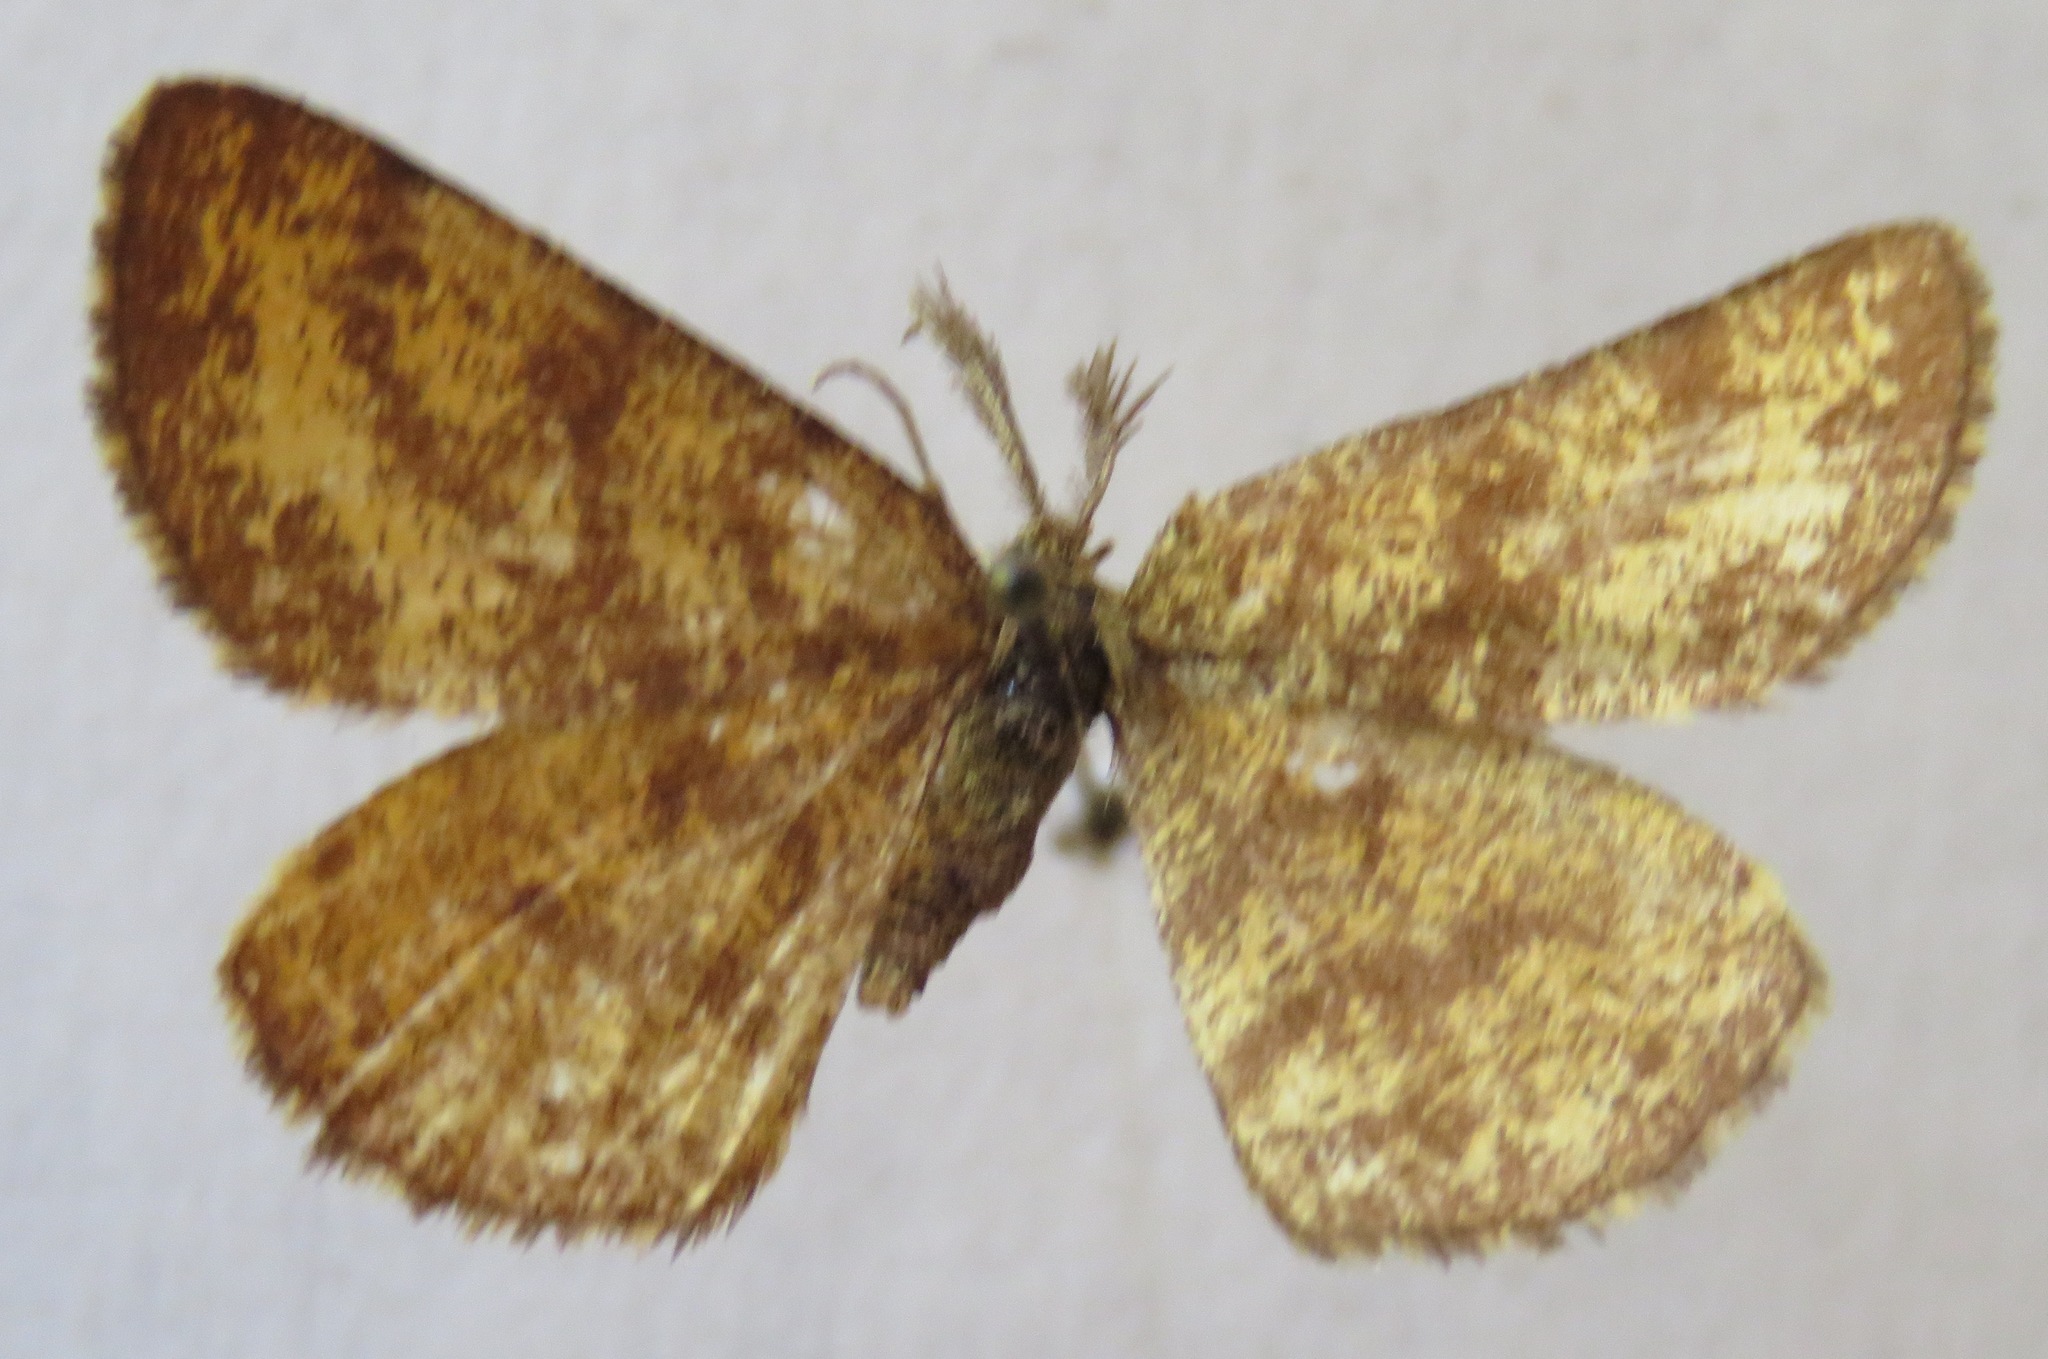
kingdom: Animalia
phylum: Arthropoda
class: Insecta
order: Lepidoptera
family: Geometridae
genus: Ematurga
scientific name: Ematurga atomaria
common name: Common heath
